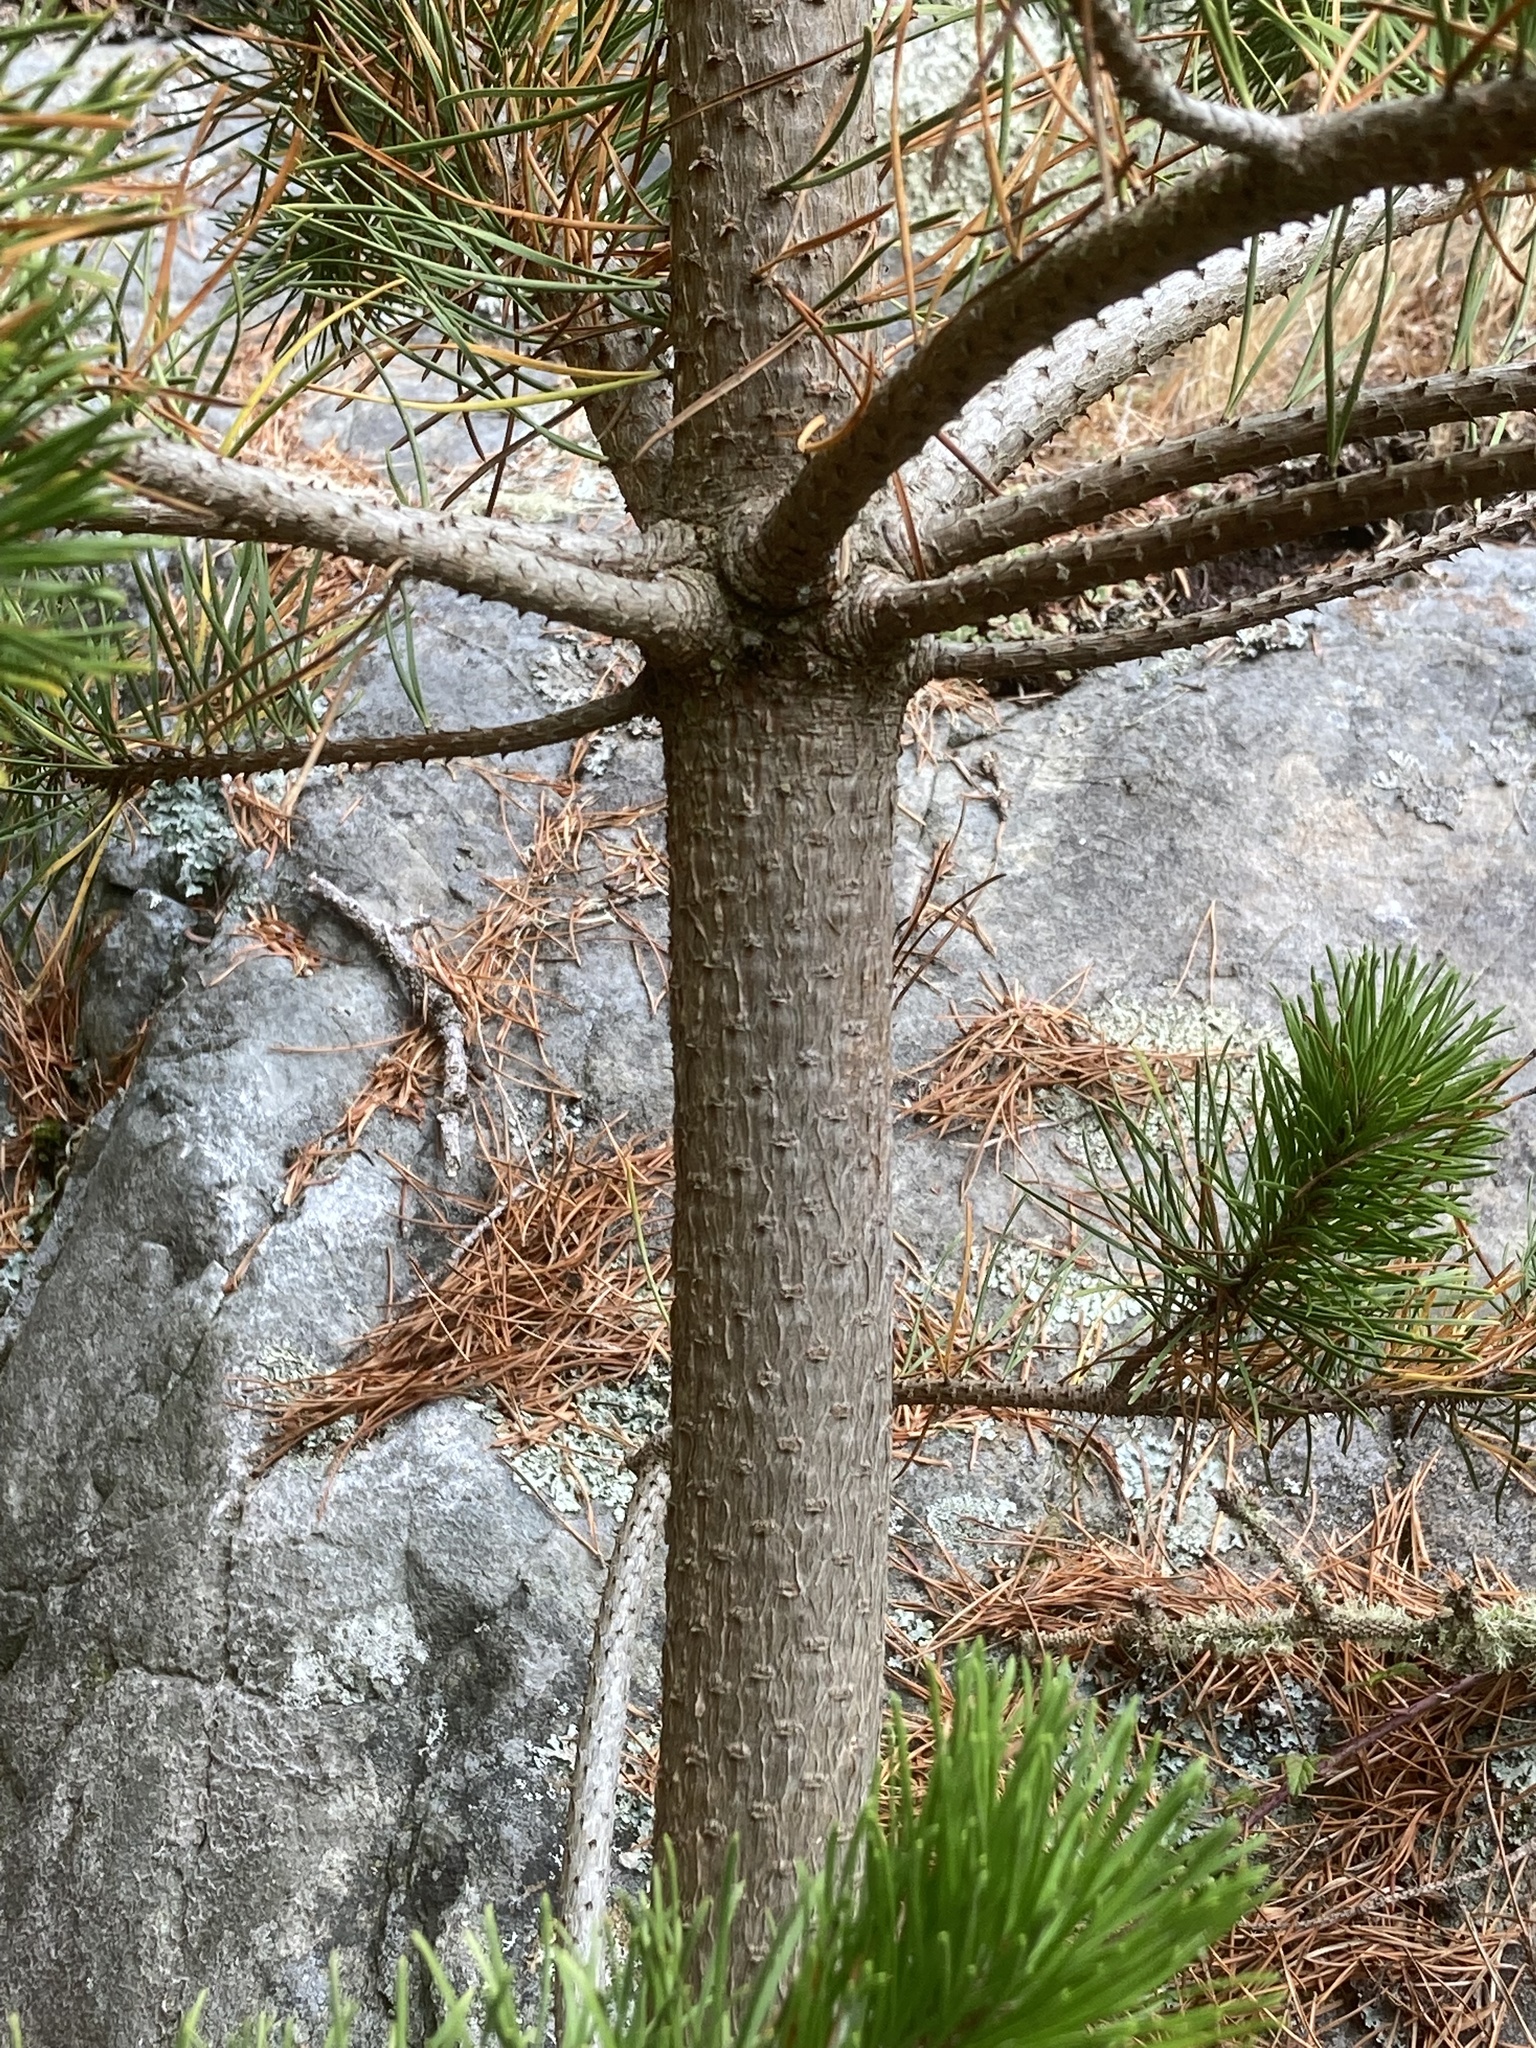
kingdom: Plantae
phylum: Tracheophyta
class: Pinopsida
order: Pinales
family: Pinaceae
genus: Pinus
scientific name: Pinus contorta
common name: Lodgepole pine
